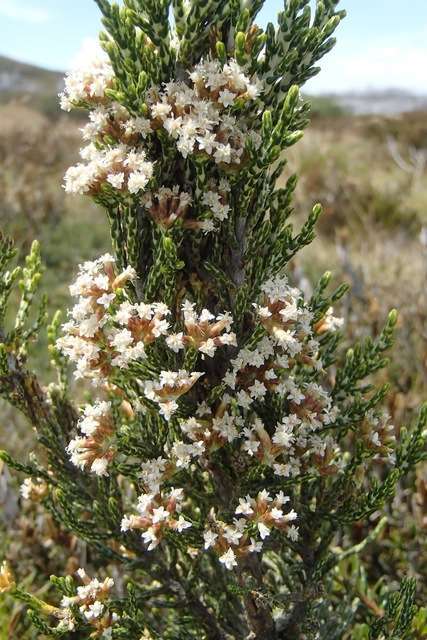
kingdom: Plantae
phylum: Tracheophyta
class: Magnoliopsida
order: Asterales
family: Asteraceae
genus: Ozothamnus
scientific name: Ozothamnus cupressoides
